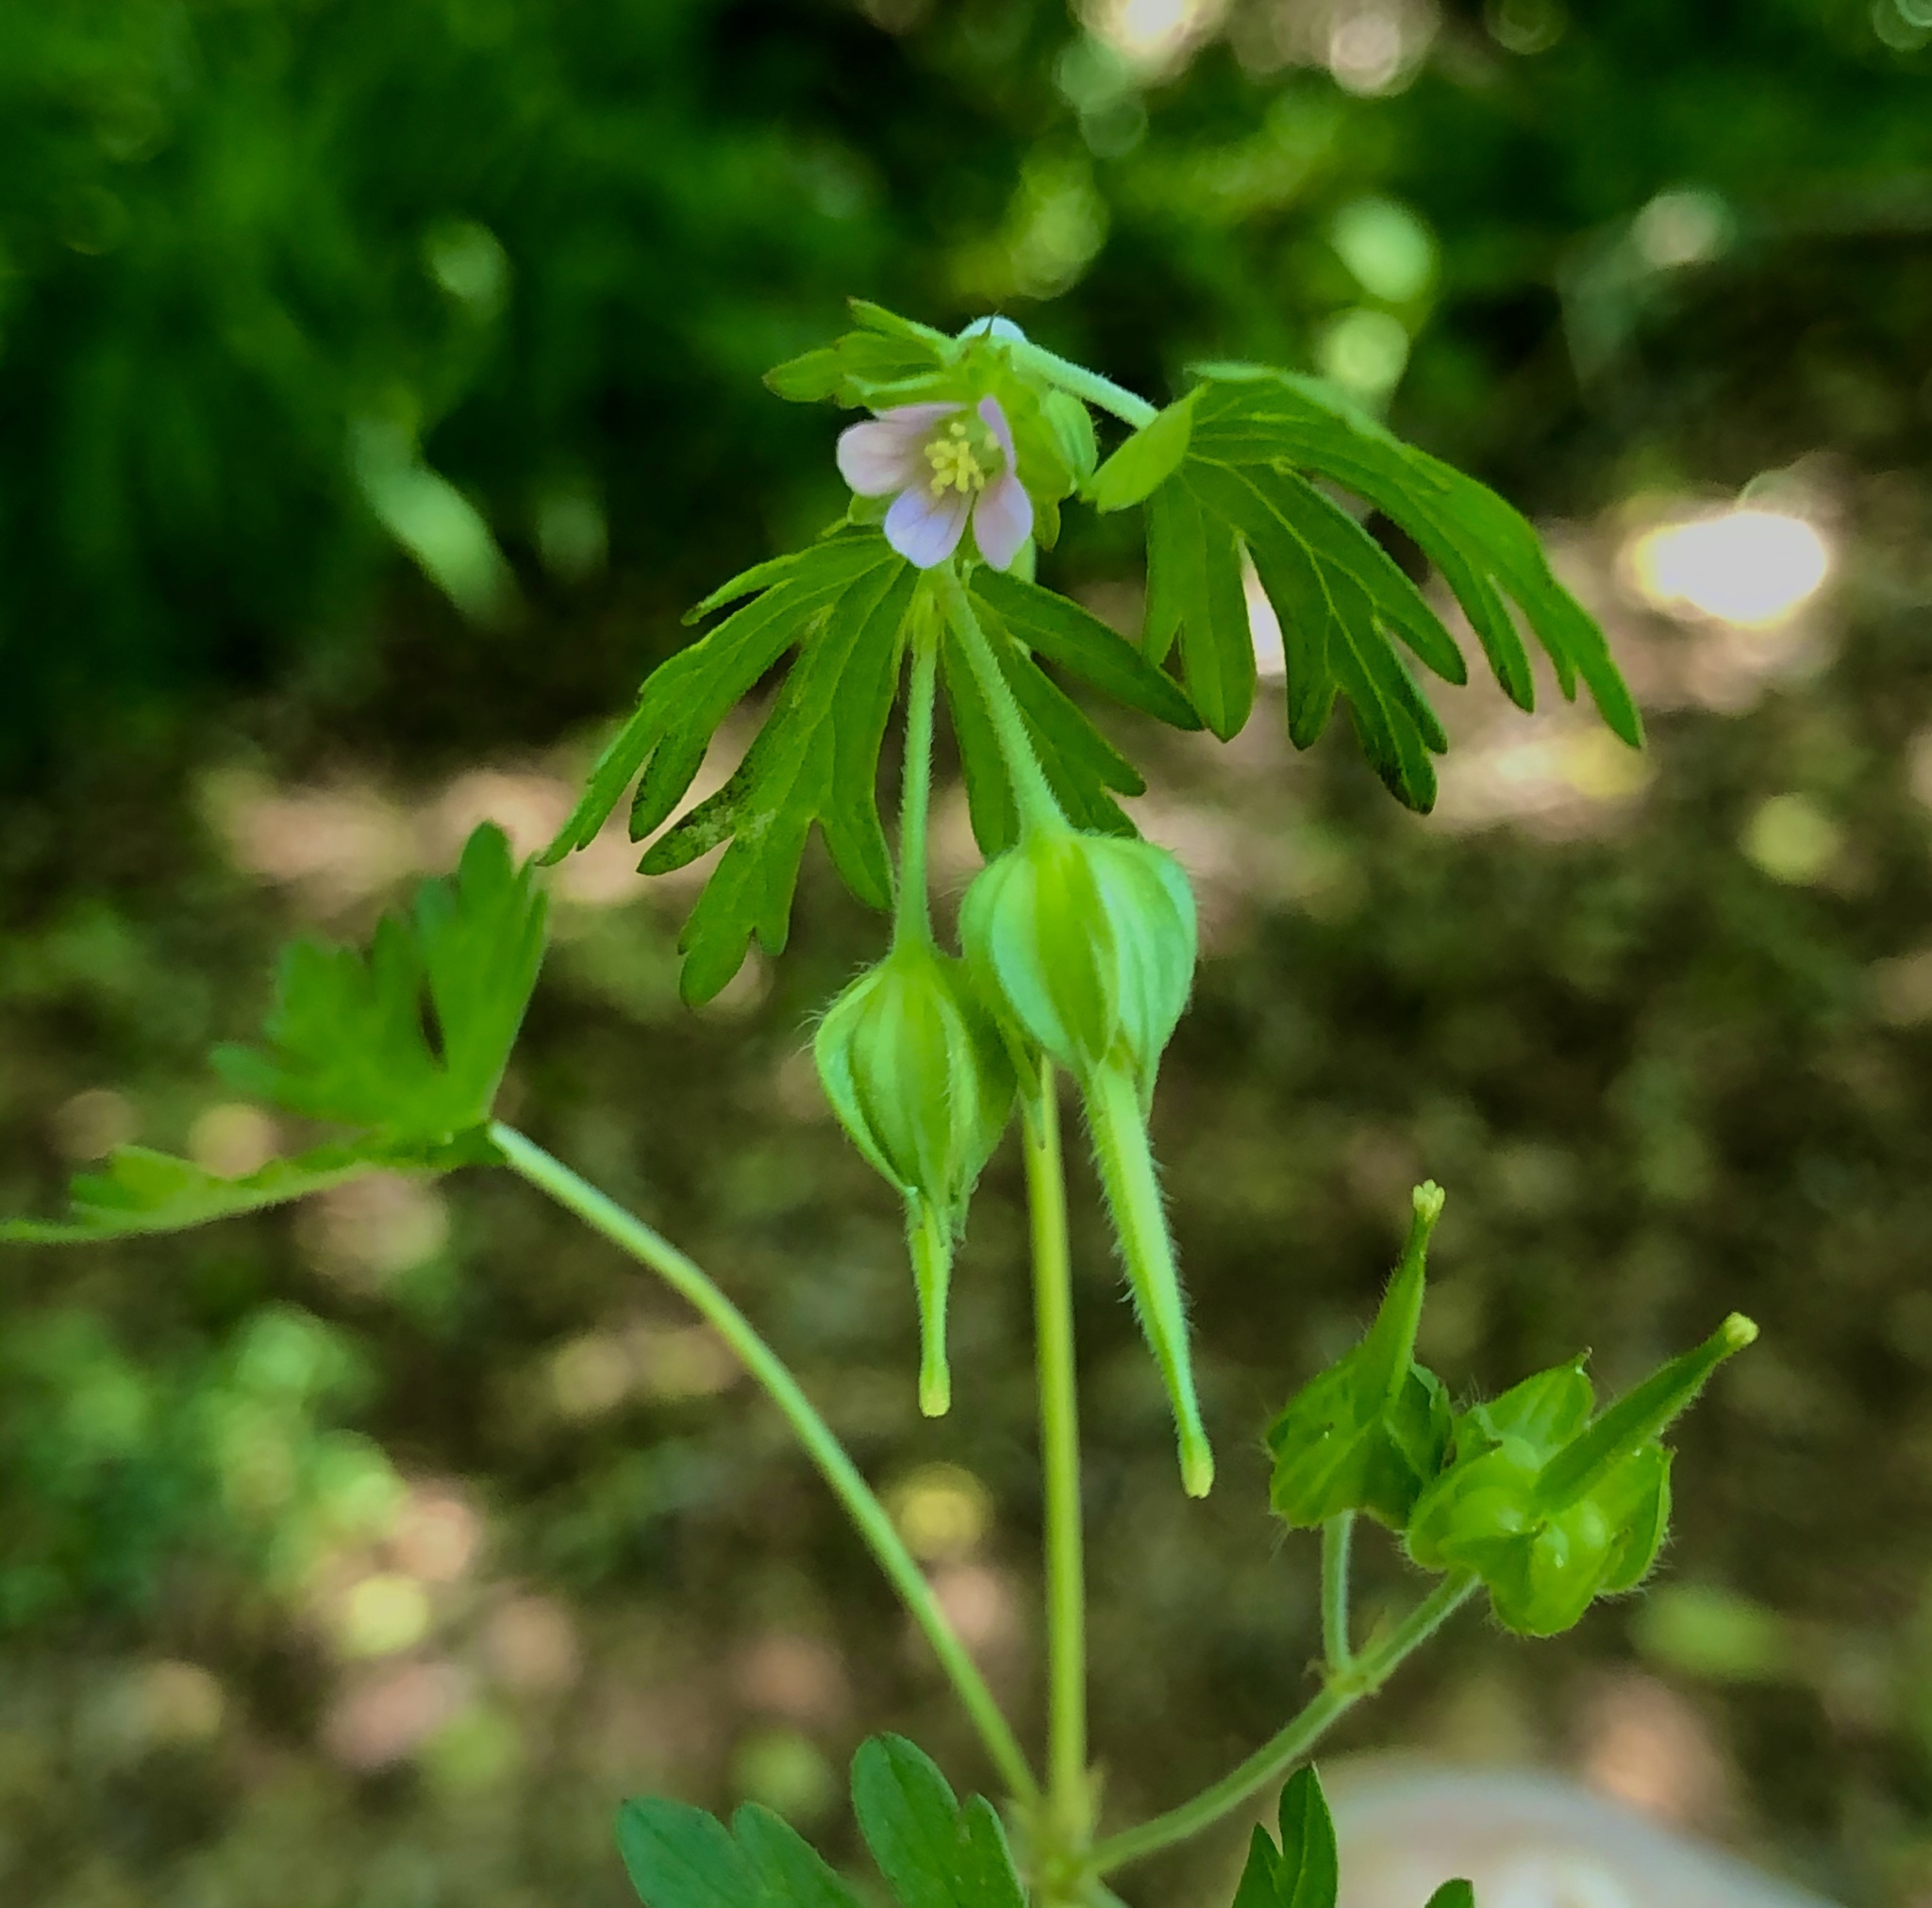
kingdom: Plantae
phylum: Tracheophyta
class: Magnoliopsida
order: Geraniales
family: Geraniaceae
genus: Geranium
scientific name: Geranium carolinianum
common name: Carolina crane's-bill
